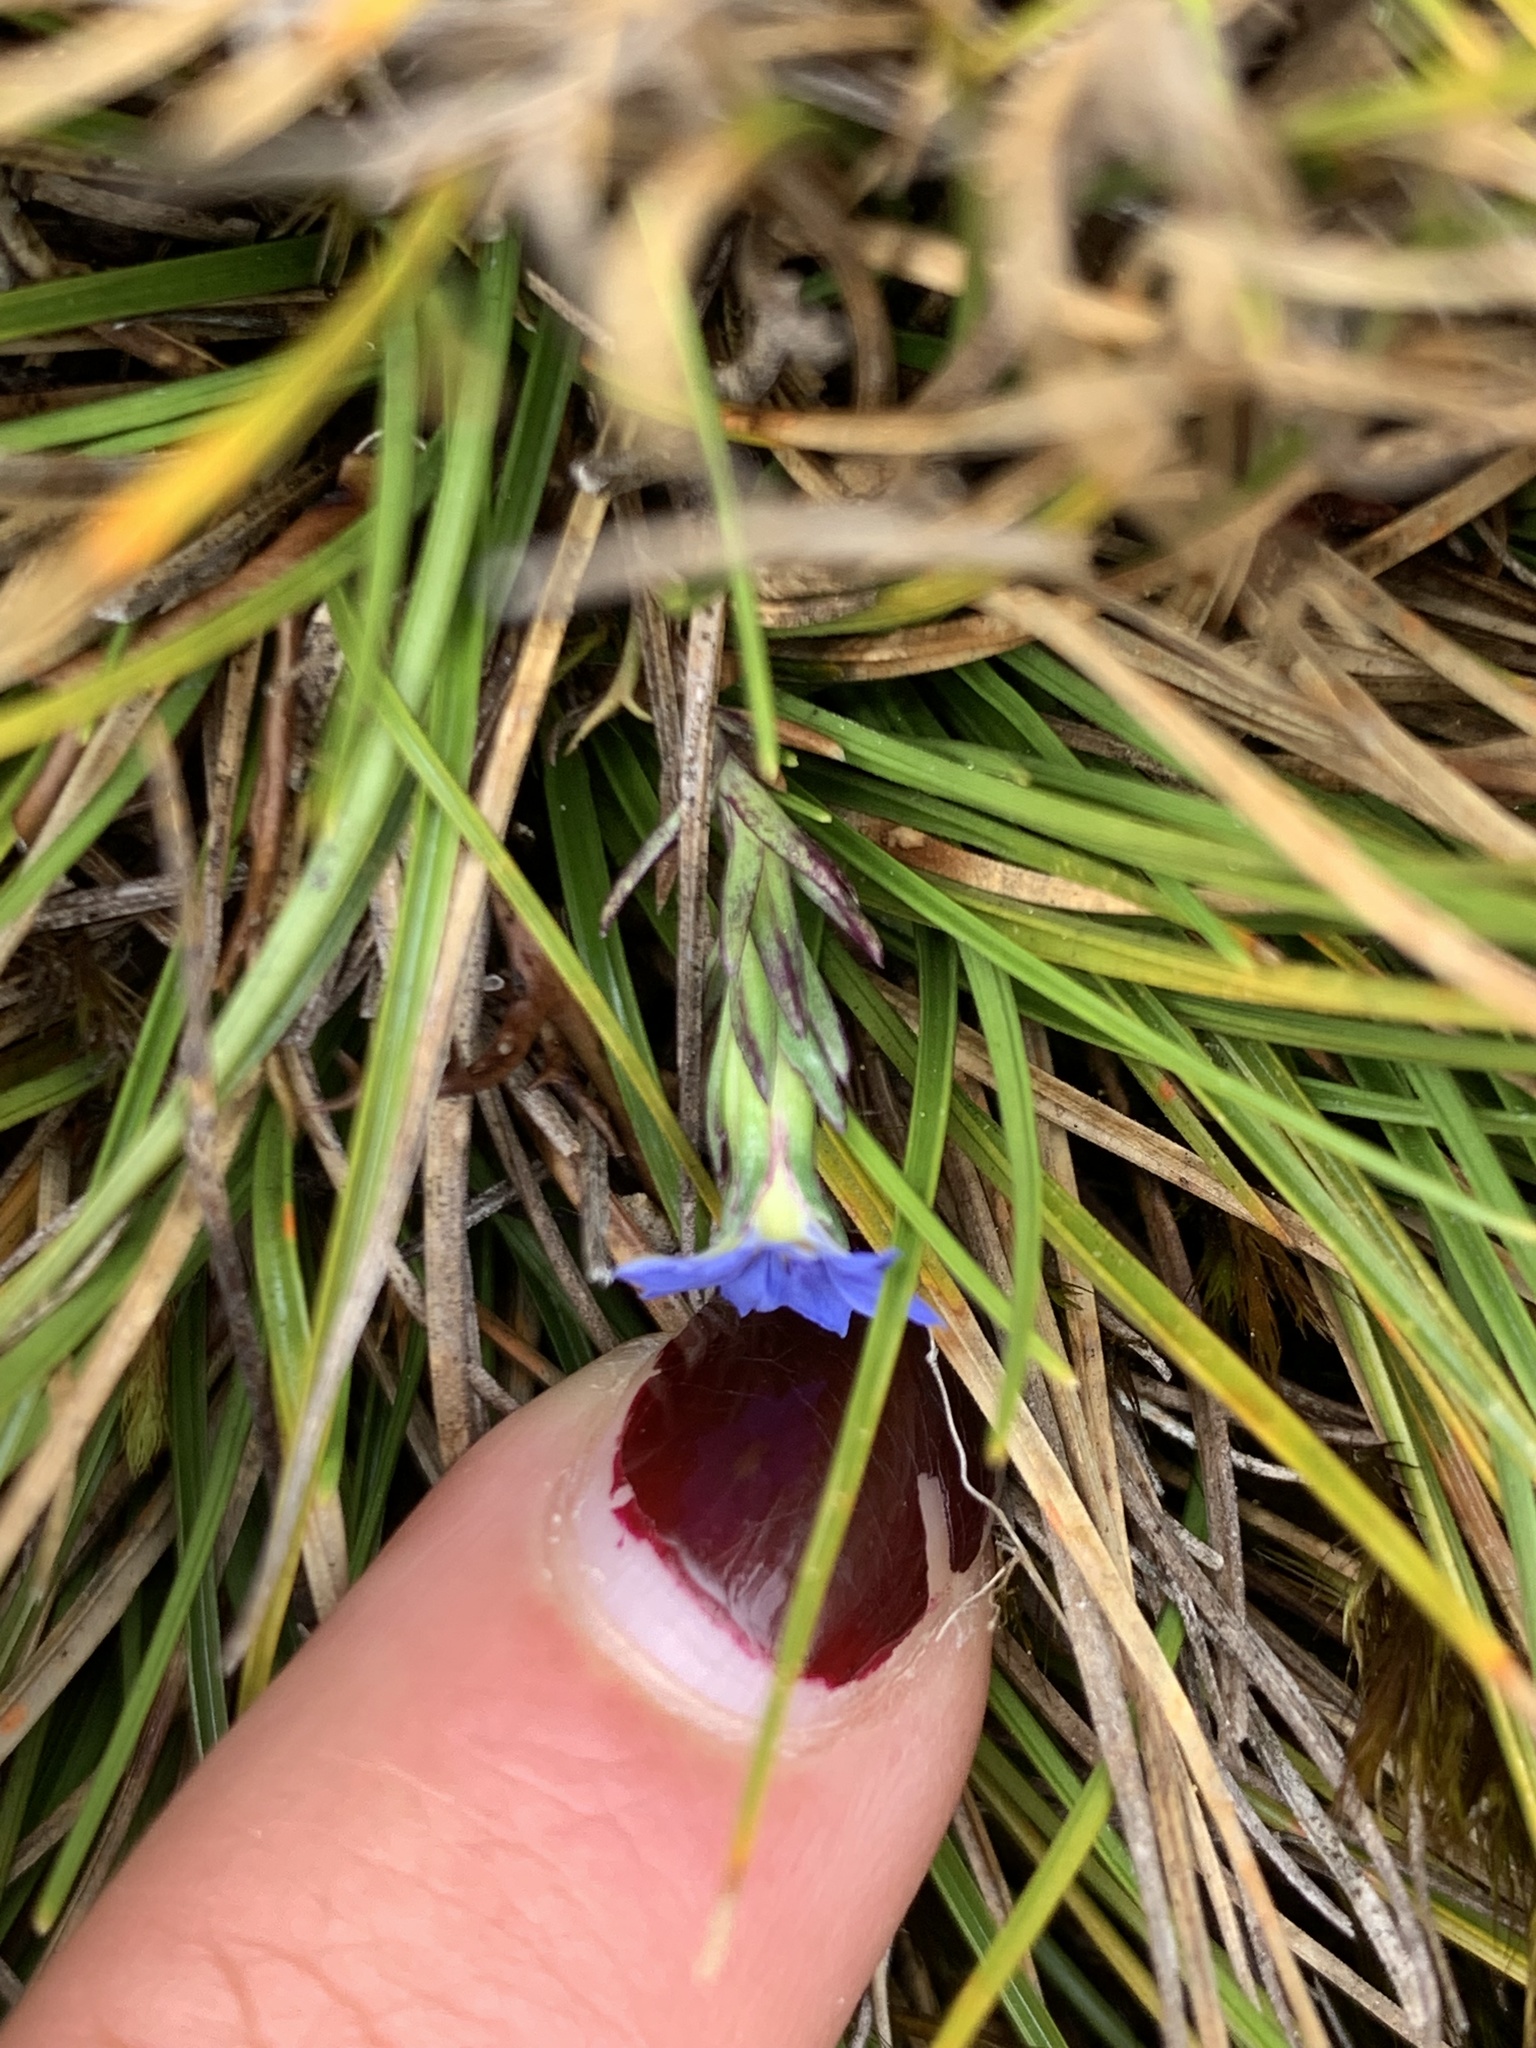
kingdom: Plantae
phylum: Tracheophyta
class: Magnoliopsida
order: Gentianales
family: Gentianaceae
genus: Gentiana
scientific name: Gentiana sedifolia
